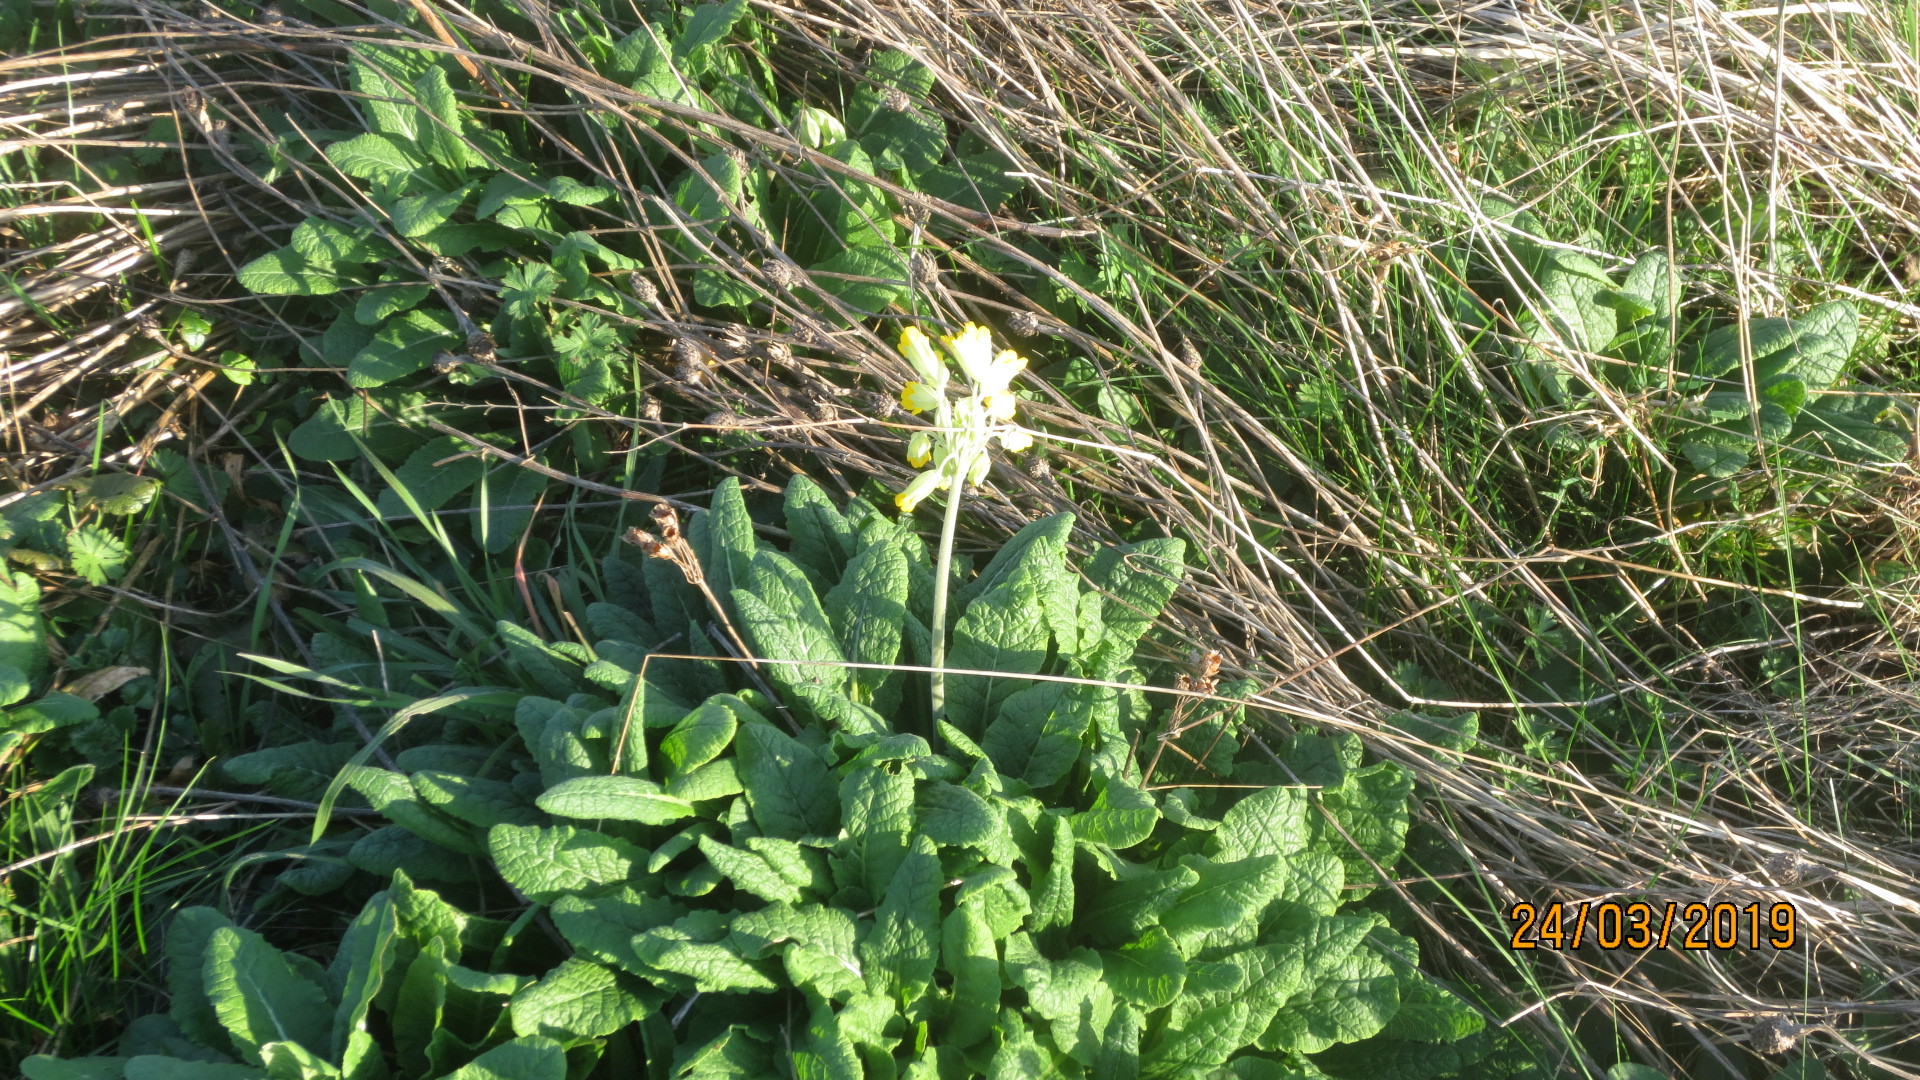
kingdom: Plantae
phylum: Tracheophyta
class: Magnoliopsida
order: Ericales
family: Primulaceae
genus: Primula
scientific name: Primula veris
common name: Cowslip
